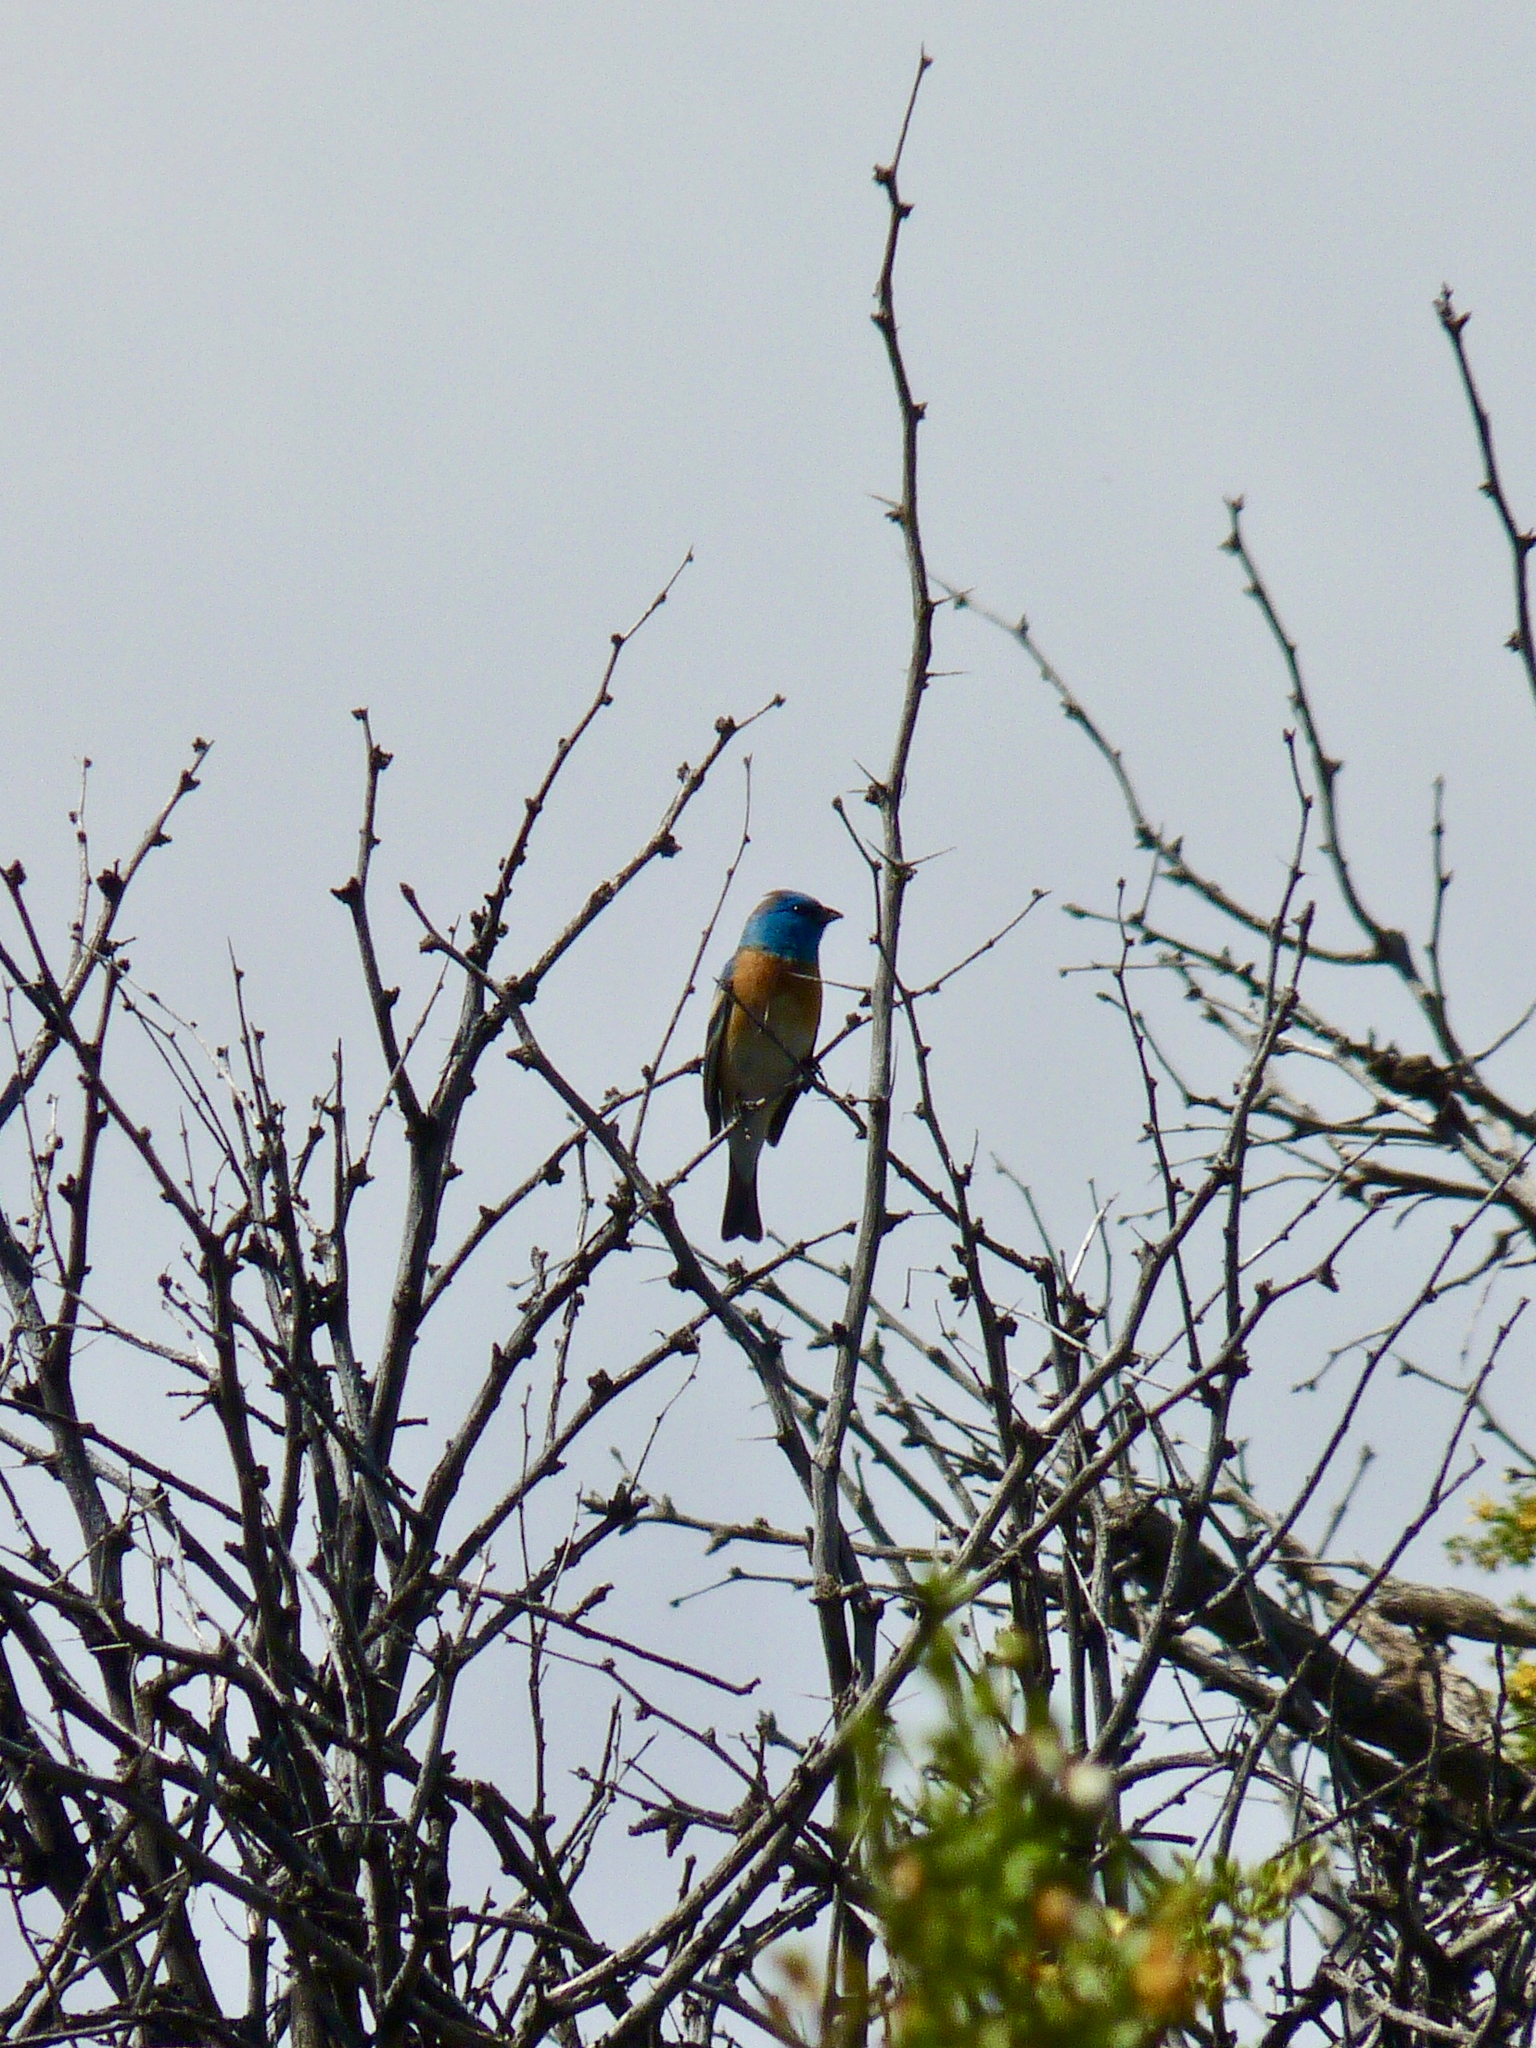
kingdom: Animalia
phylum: Chordata
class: Aves
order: Passeriformes
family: Cardinalidae
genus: Passerina
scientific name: Passerina amoena
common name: Lazuli bunting
